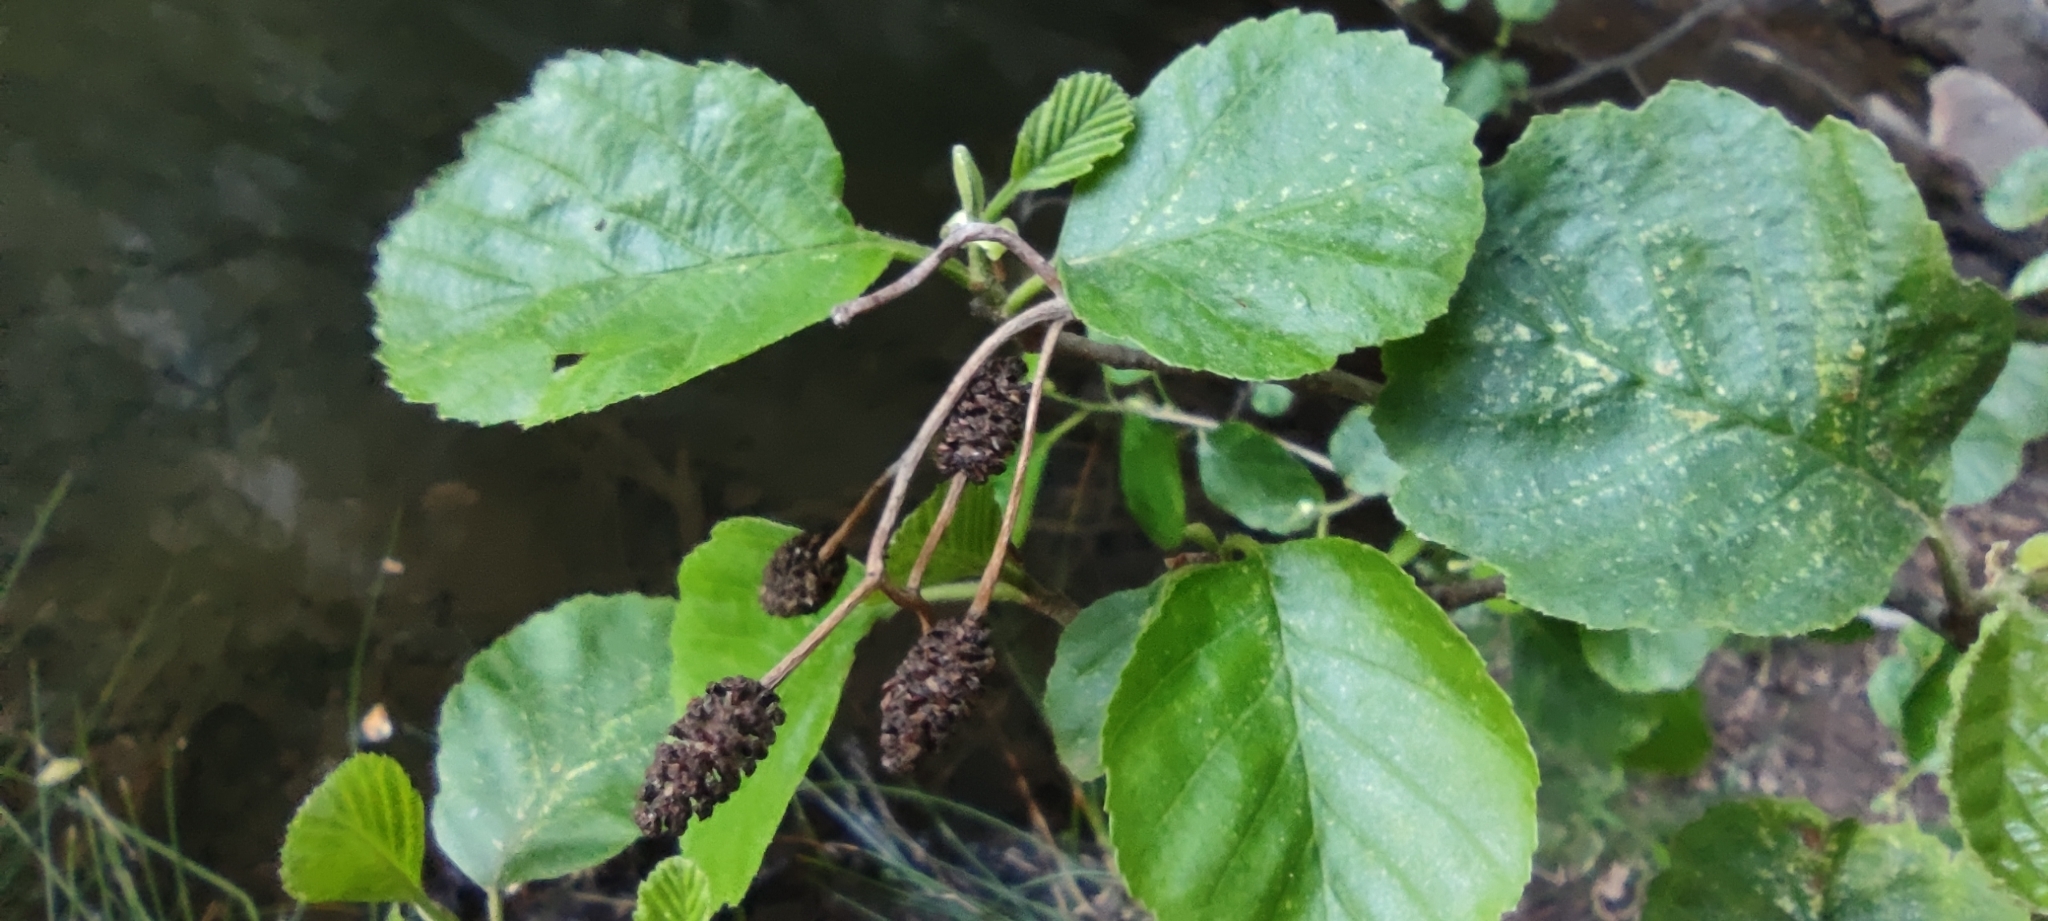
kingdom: Plantae
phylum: Tracheophyta
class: Magnoliopsida
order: Fagales
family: Betulaceae
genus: Alnus
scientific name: Alnus lusitanica
